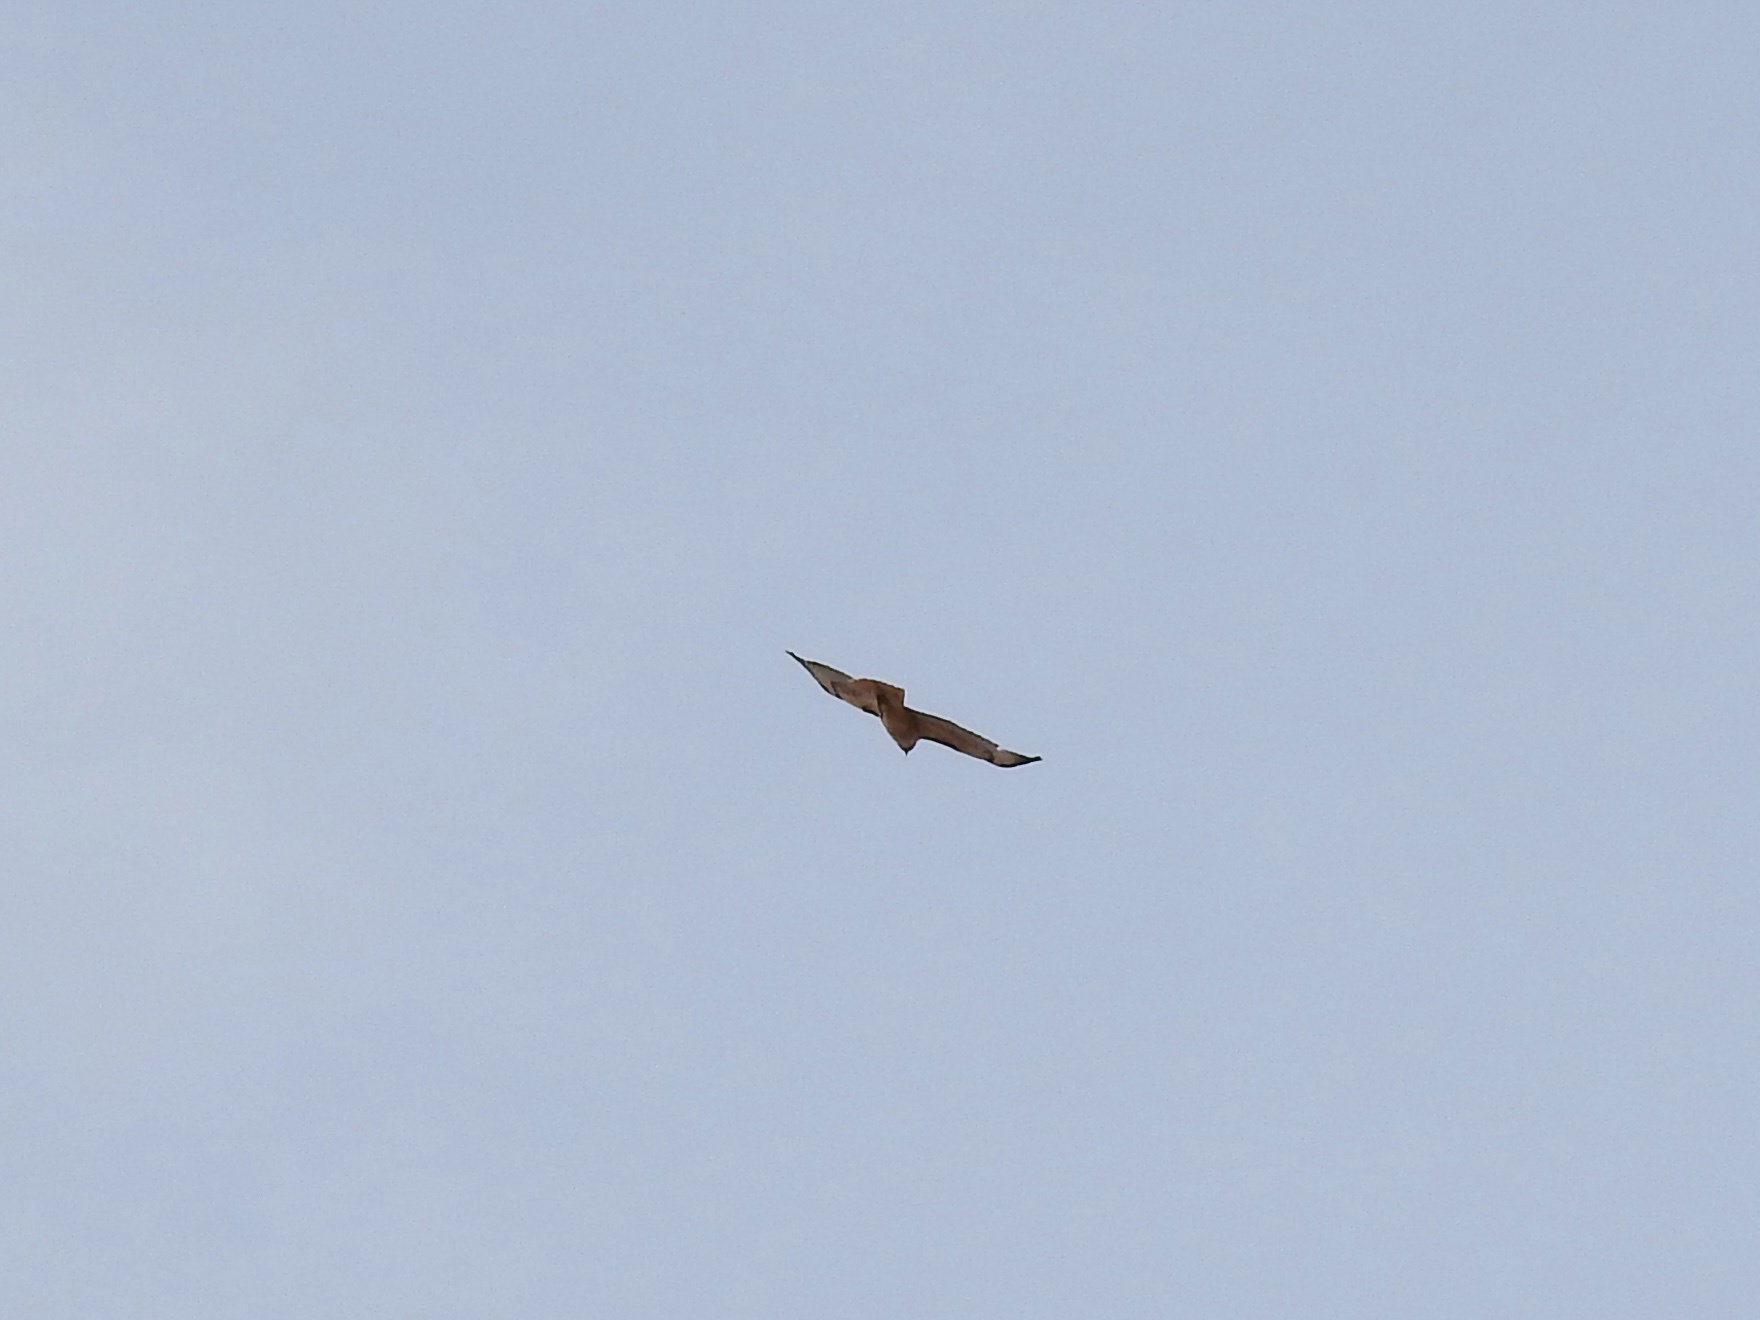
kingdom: Animalia
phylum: Chordata
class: Aves
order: Accipitriformes
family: Accipitridae
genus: Buteo
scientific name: Buteo jamaicensis
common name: Red-tailed hawk
